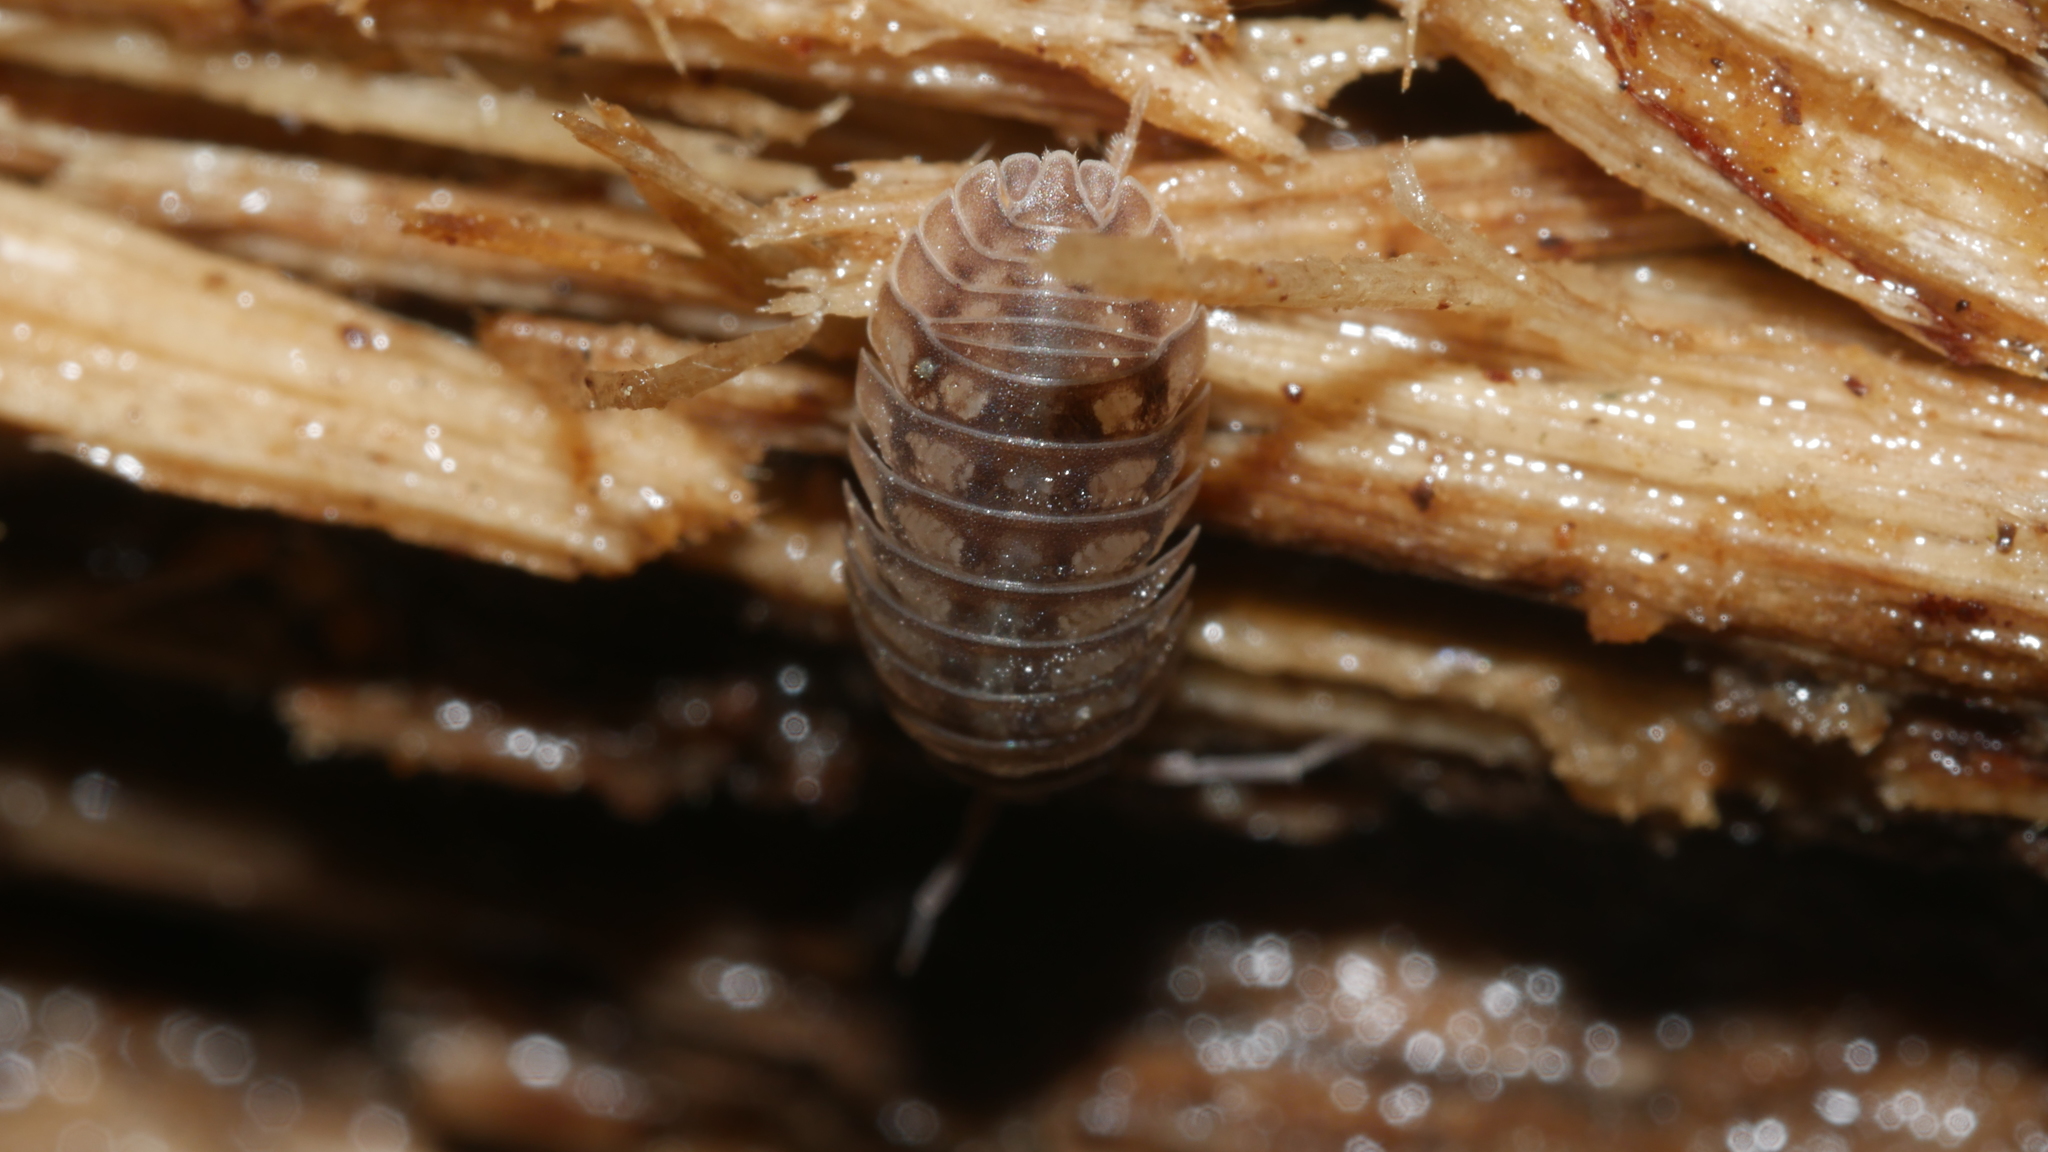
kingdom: Animalia
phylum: Arthropoda
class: Malacostraca
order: Isopoda
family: Armadillidiidae
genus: Armadillidium
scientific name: Armadillidium nasatum
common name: Isopod
